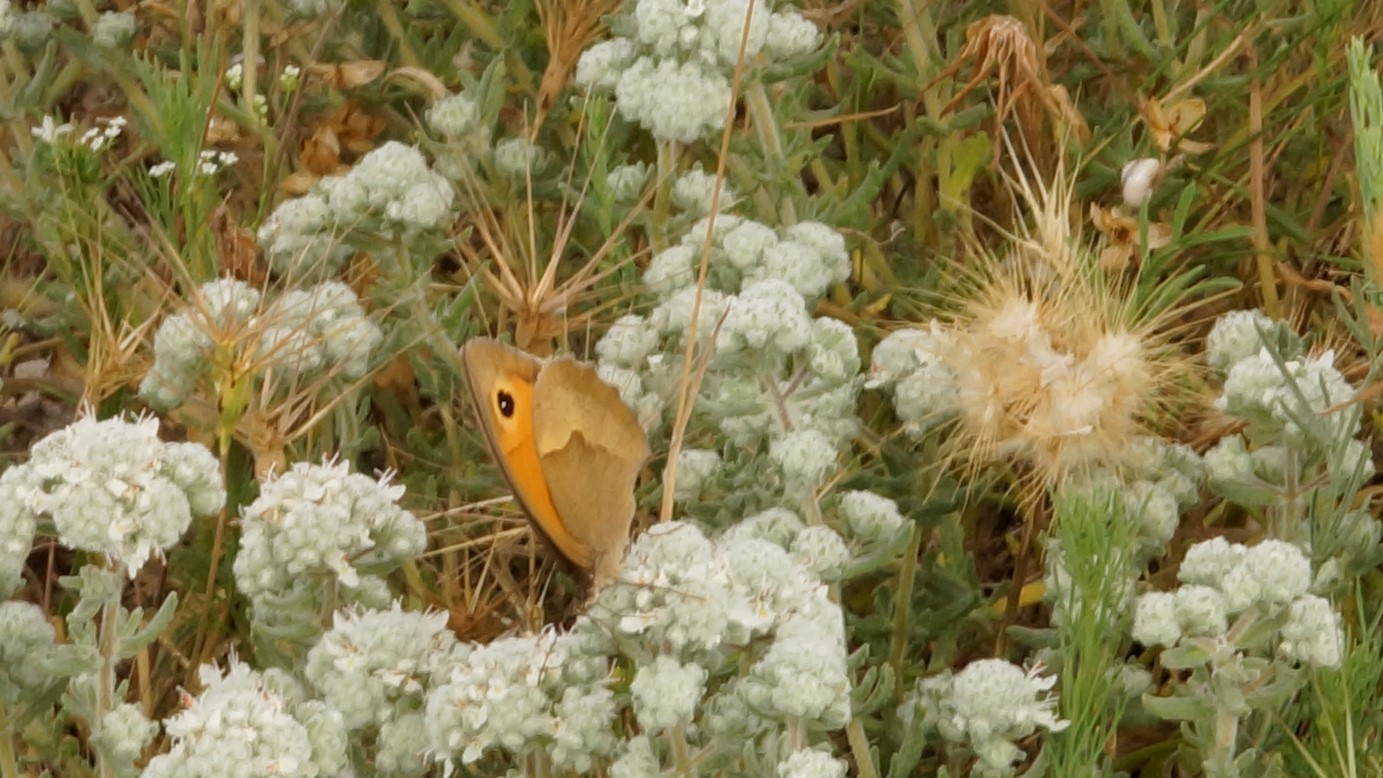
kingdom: Animalia
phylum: Arthropoda
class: Insecta
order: Lepidoptera
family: Nymphalidae
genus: Maniola
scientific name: Maniola jurtina
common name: Meadow brown
